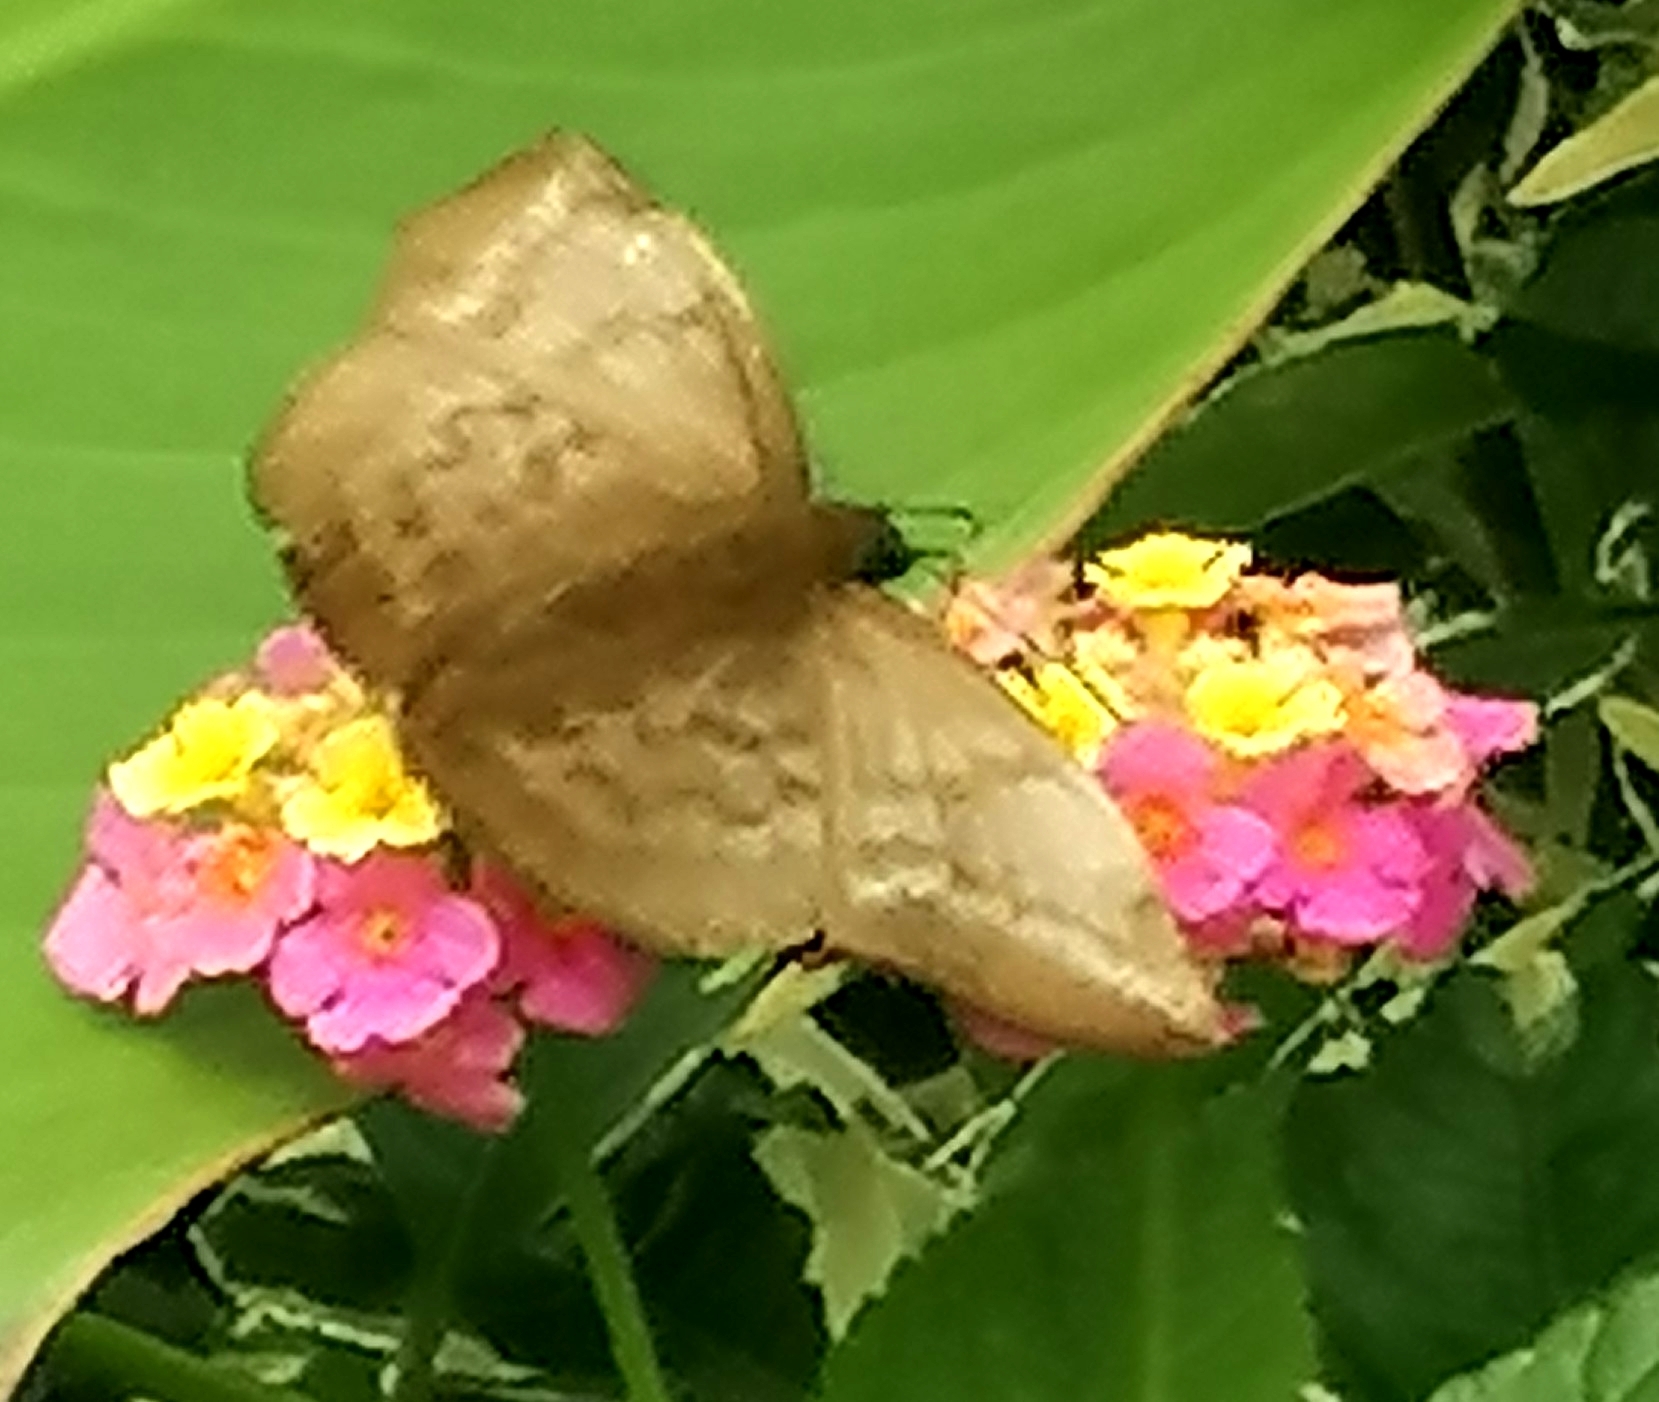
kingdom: Animalia
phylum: Arthropoda
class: Insecta
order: Lepidoptera
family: Hesperiidae
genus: Achlyodes
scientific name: Achlyodes pallida
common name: Pale sicklewing
